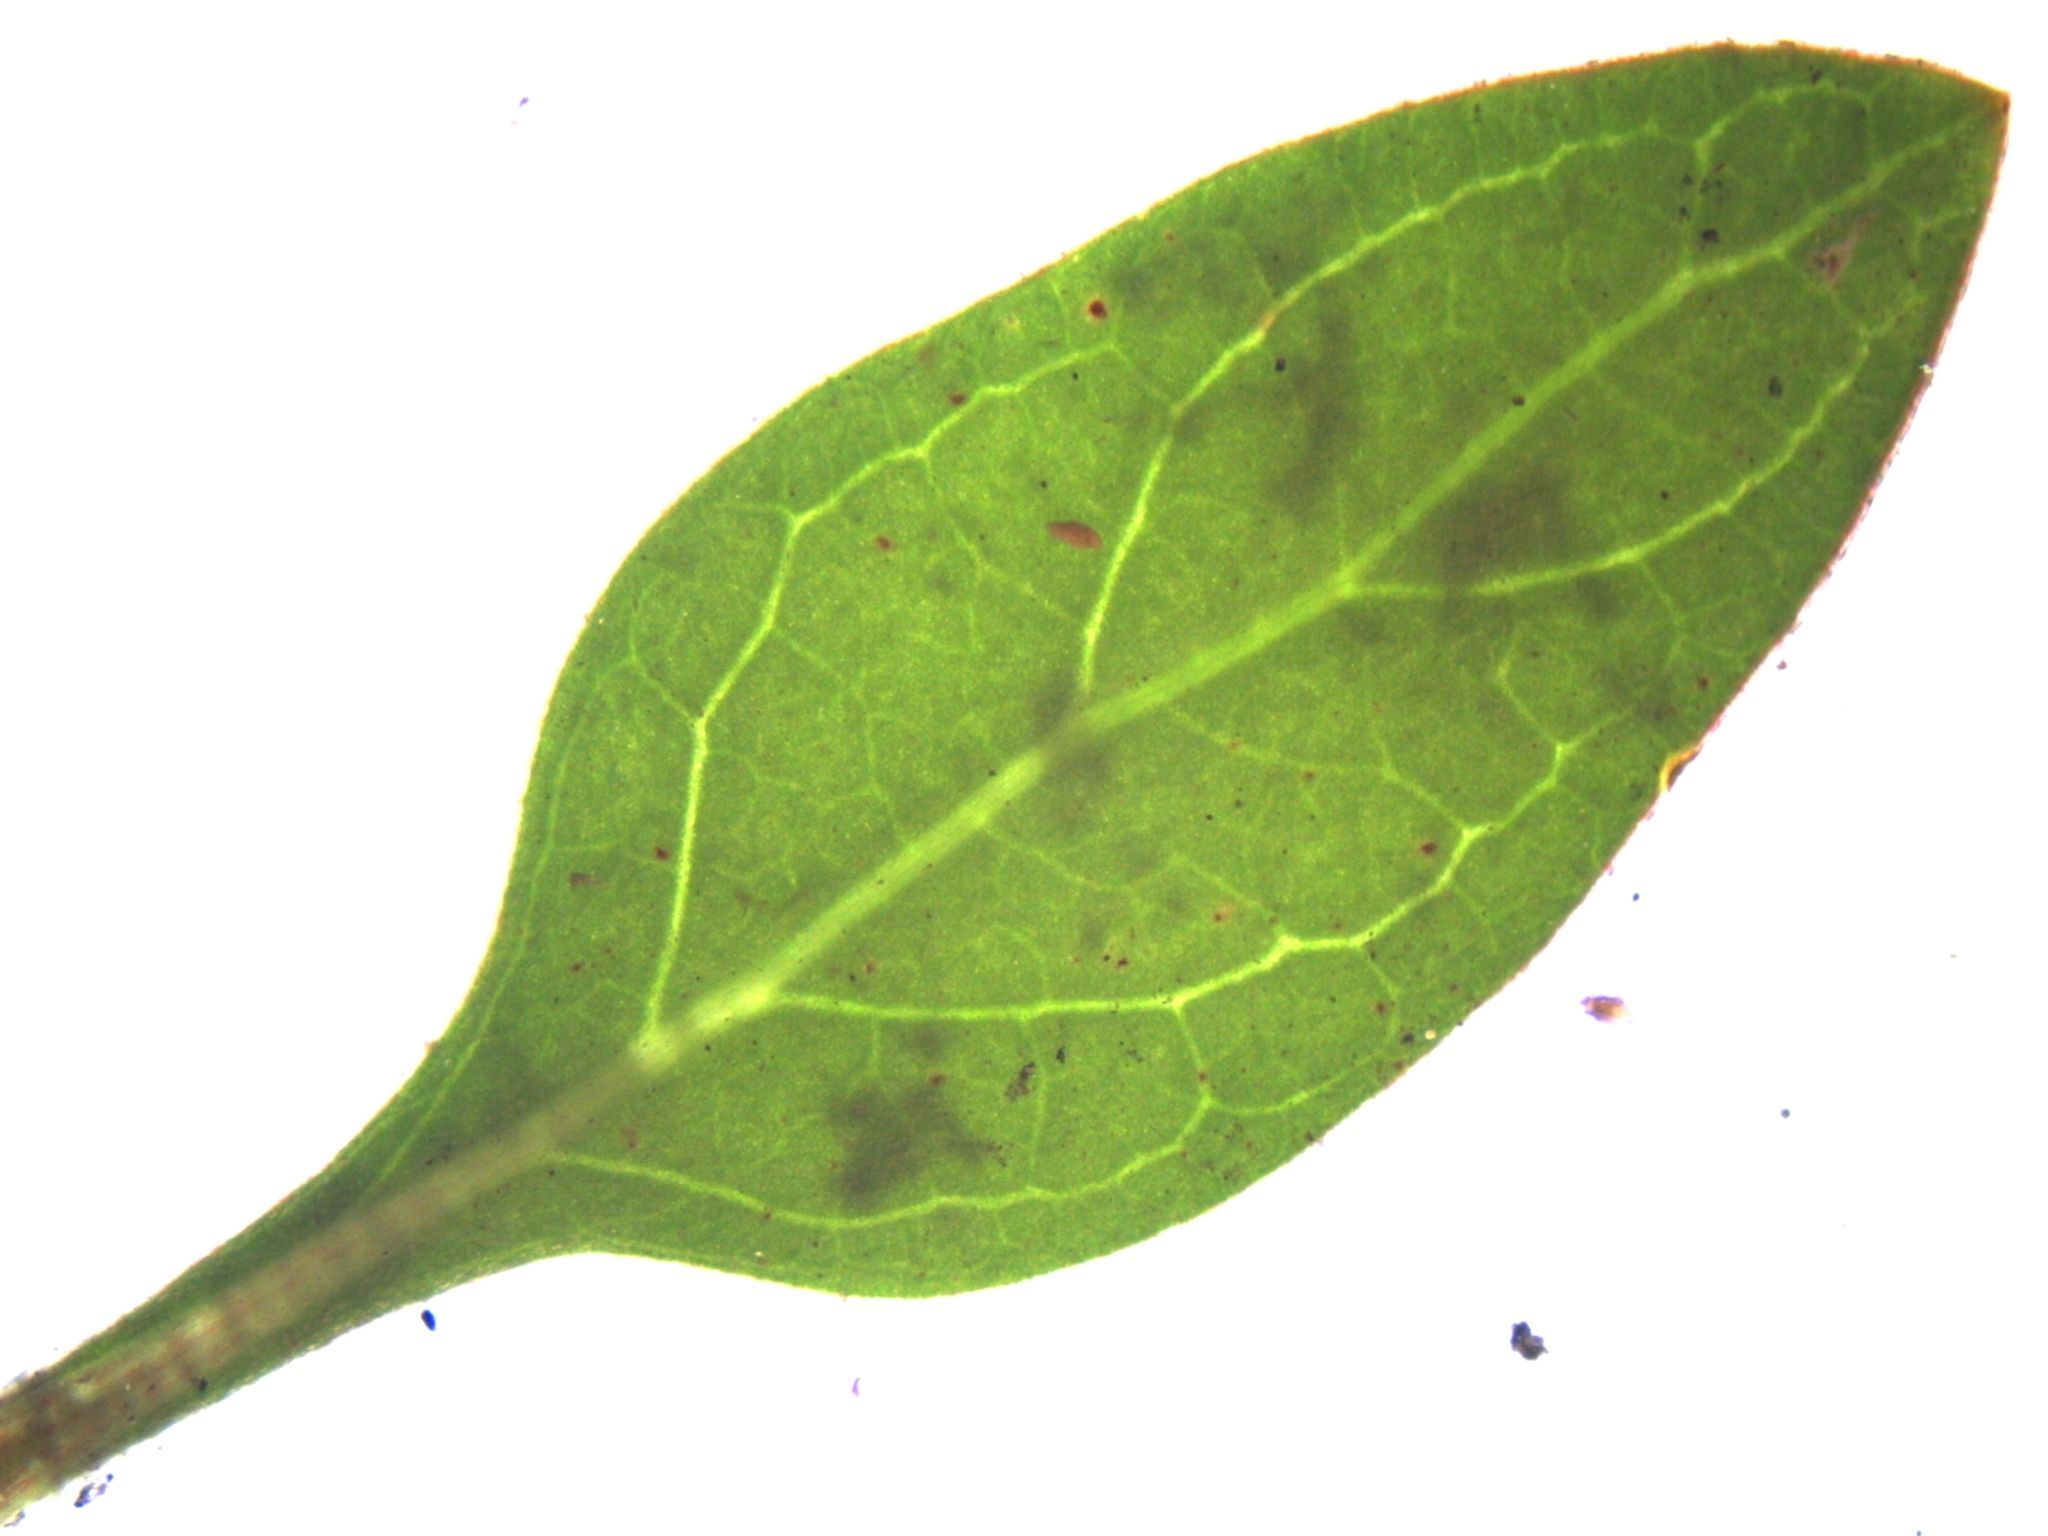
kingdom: Plantae
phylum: Tracheophyta
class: Magnoliopsida
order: Gentianales
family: Rubiaceae
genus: Coprosma
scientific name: Coprosma cunninghamii
